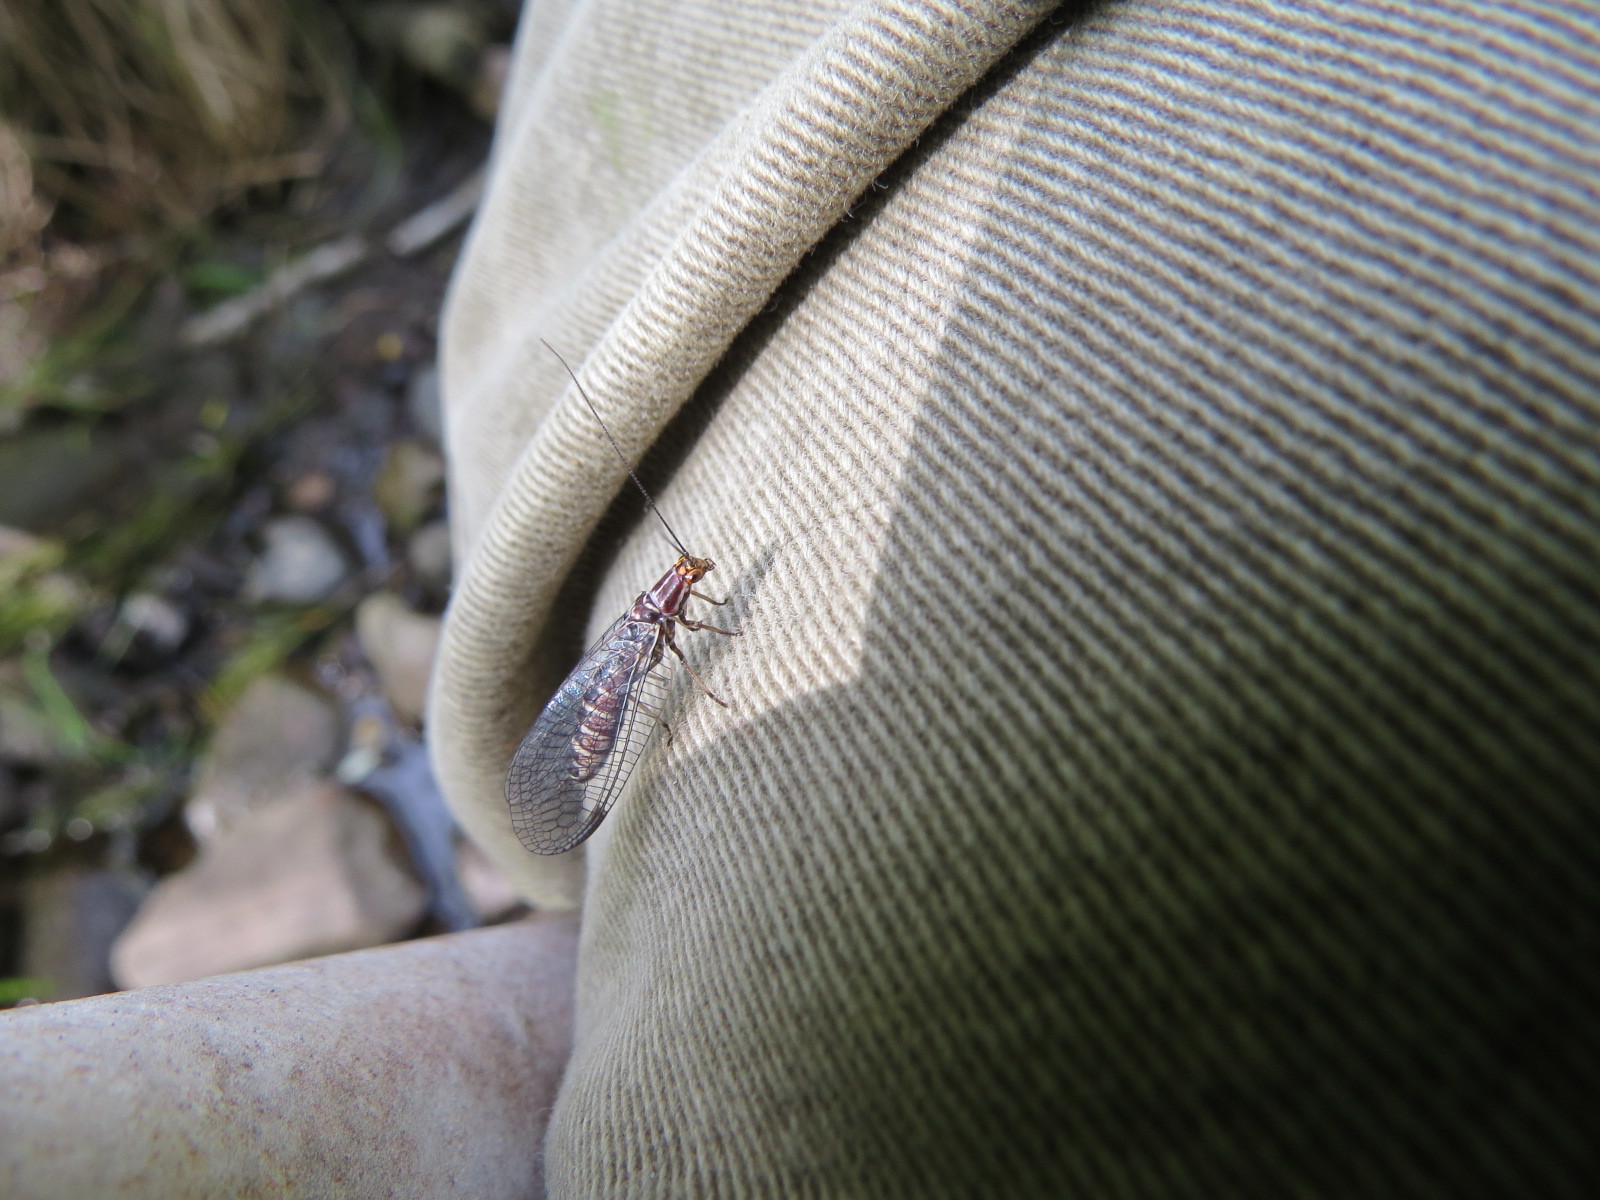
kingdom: Animalia
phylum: Arthropoda
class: Insecta
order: Neuroptera
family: Chrysopidae
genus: Nothochrysa
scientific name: Nothochrysa californica
